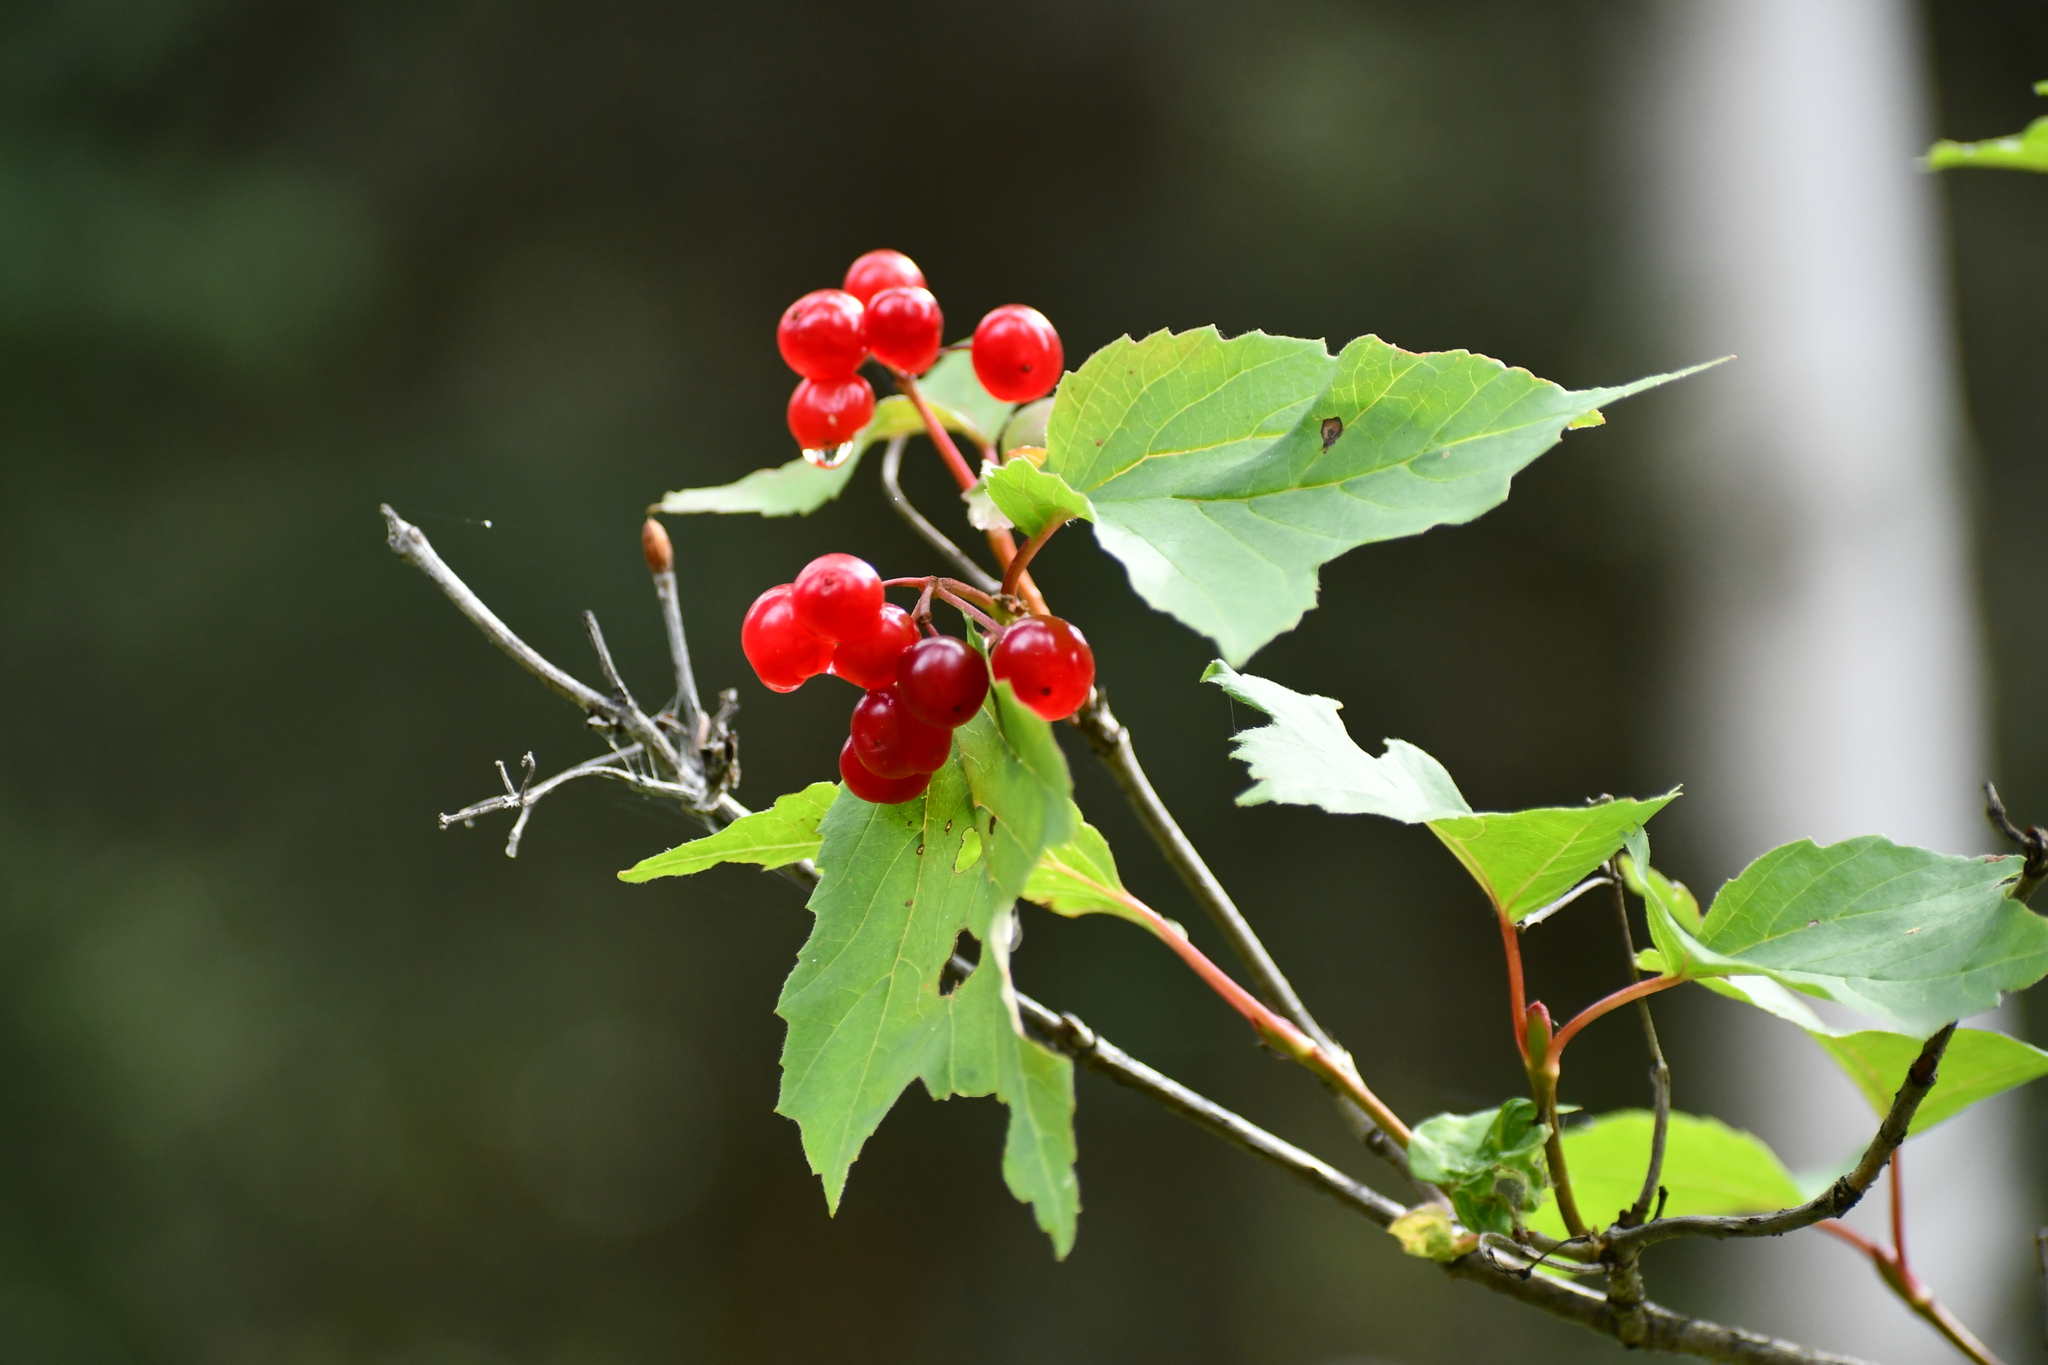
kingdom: Plantae
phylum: Tracheophyta
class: Magnoliopsida
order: Dipsacales
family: Viburnaceae
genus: Viburnum
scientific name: Viburnum edule
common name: Mooseberry
